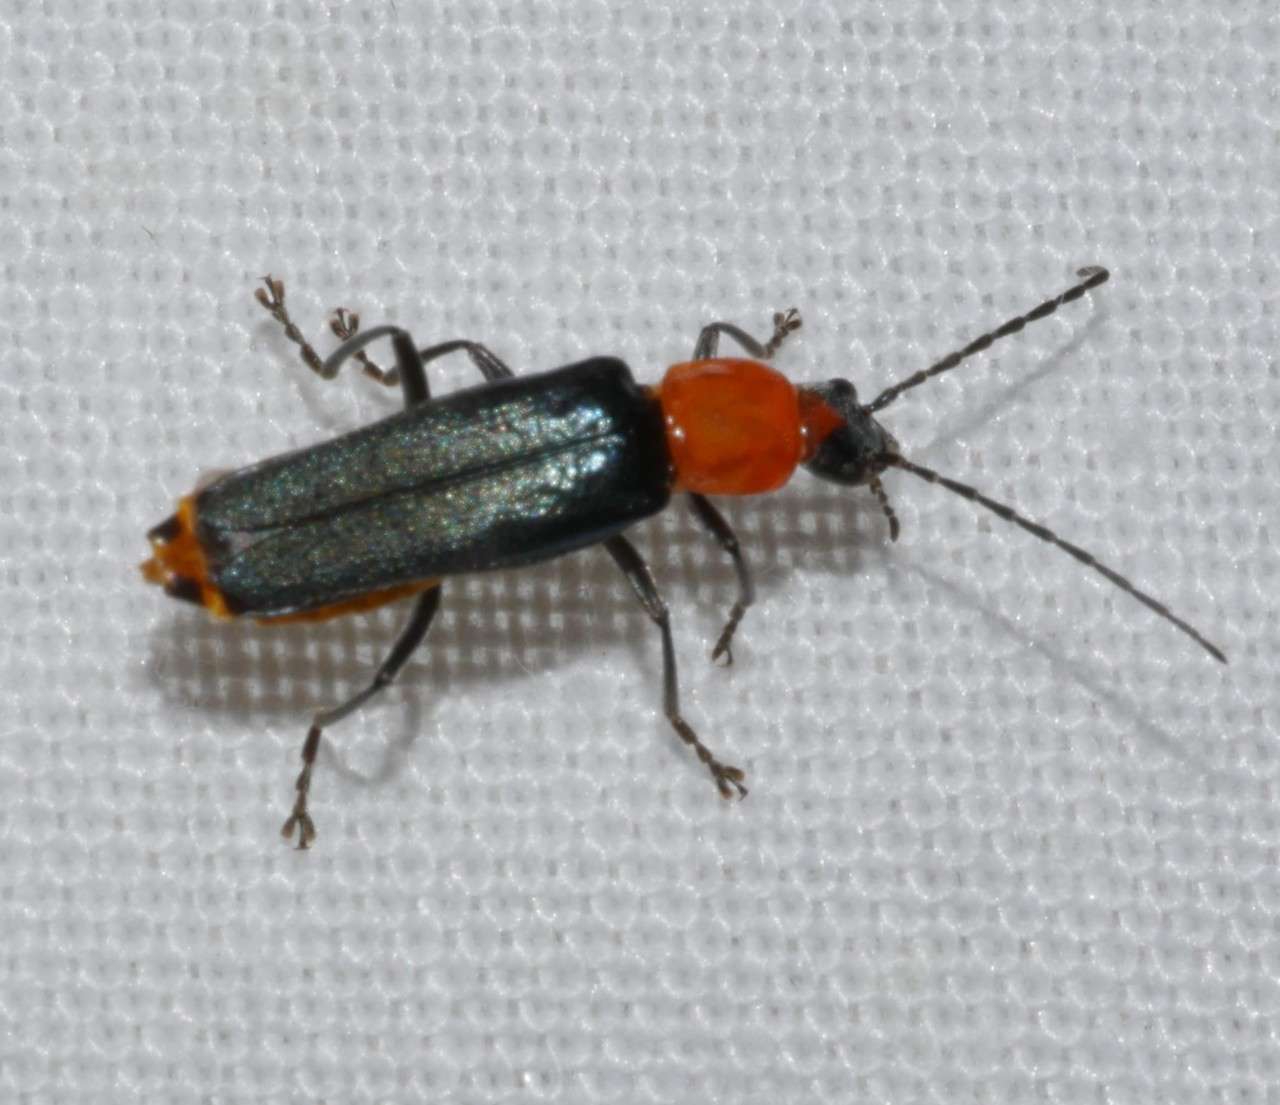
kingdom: Animalia
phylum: Arthropoda
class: Insecta
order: Coleoptera
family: Cantharidae
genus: Chauliognathus
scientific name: Chauliognathus
